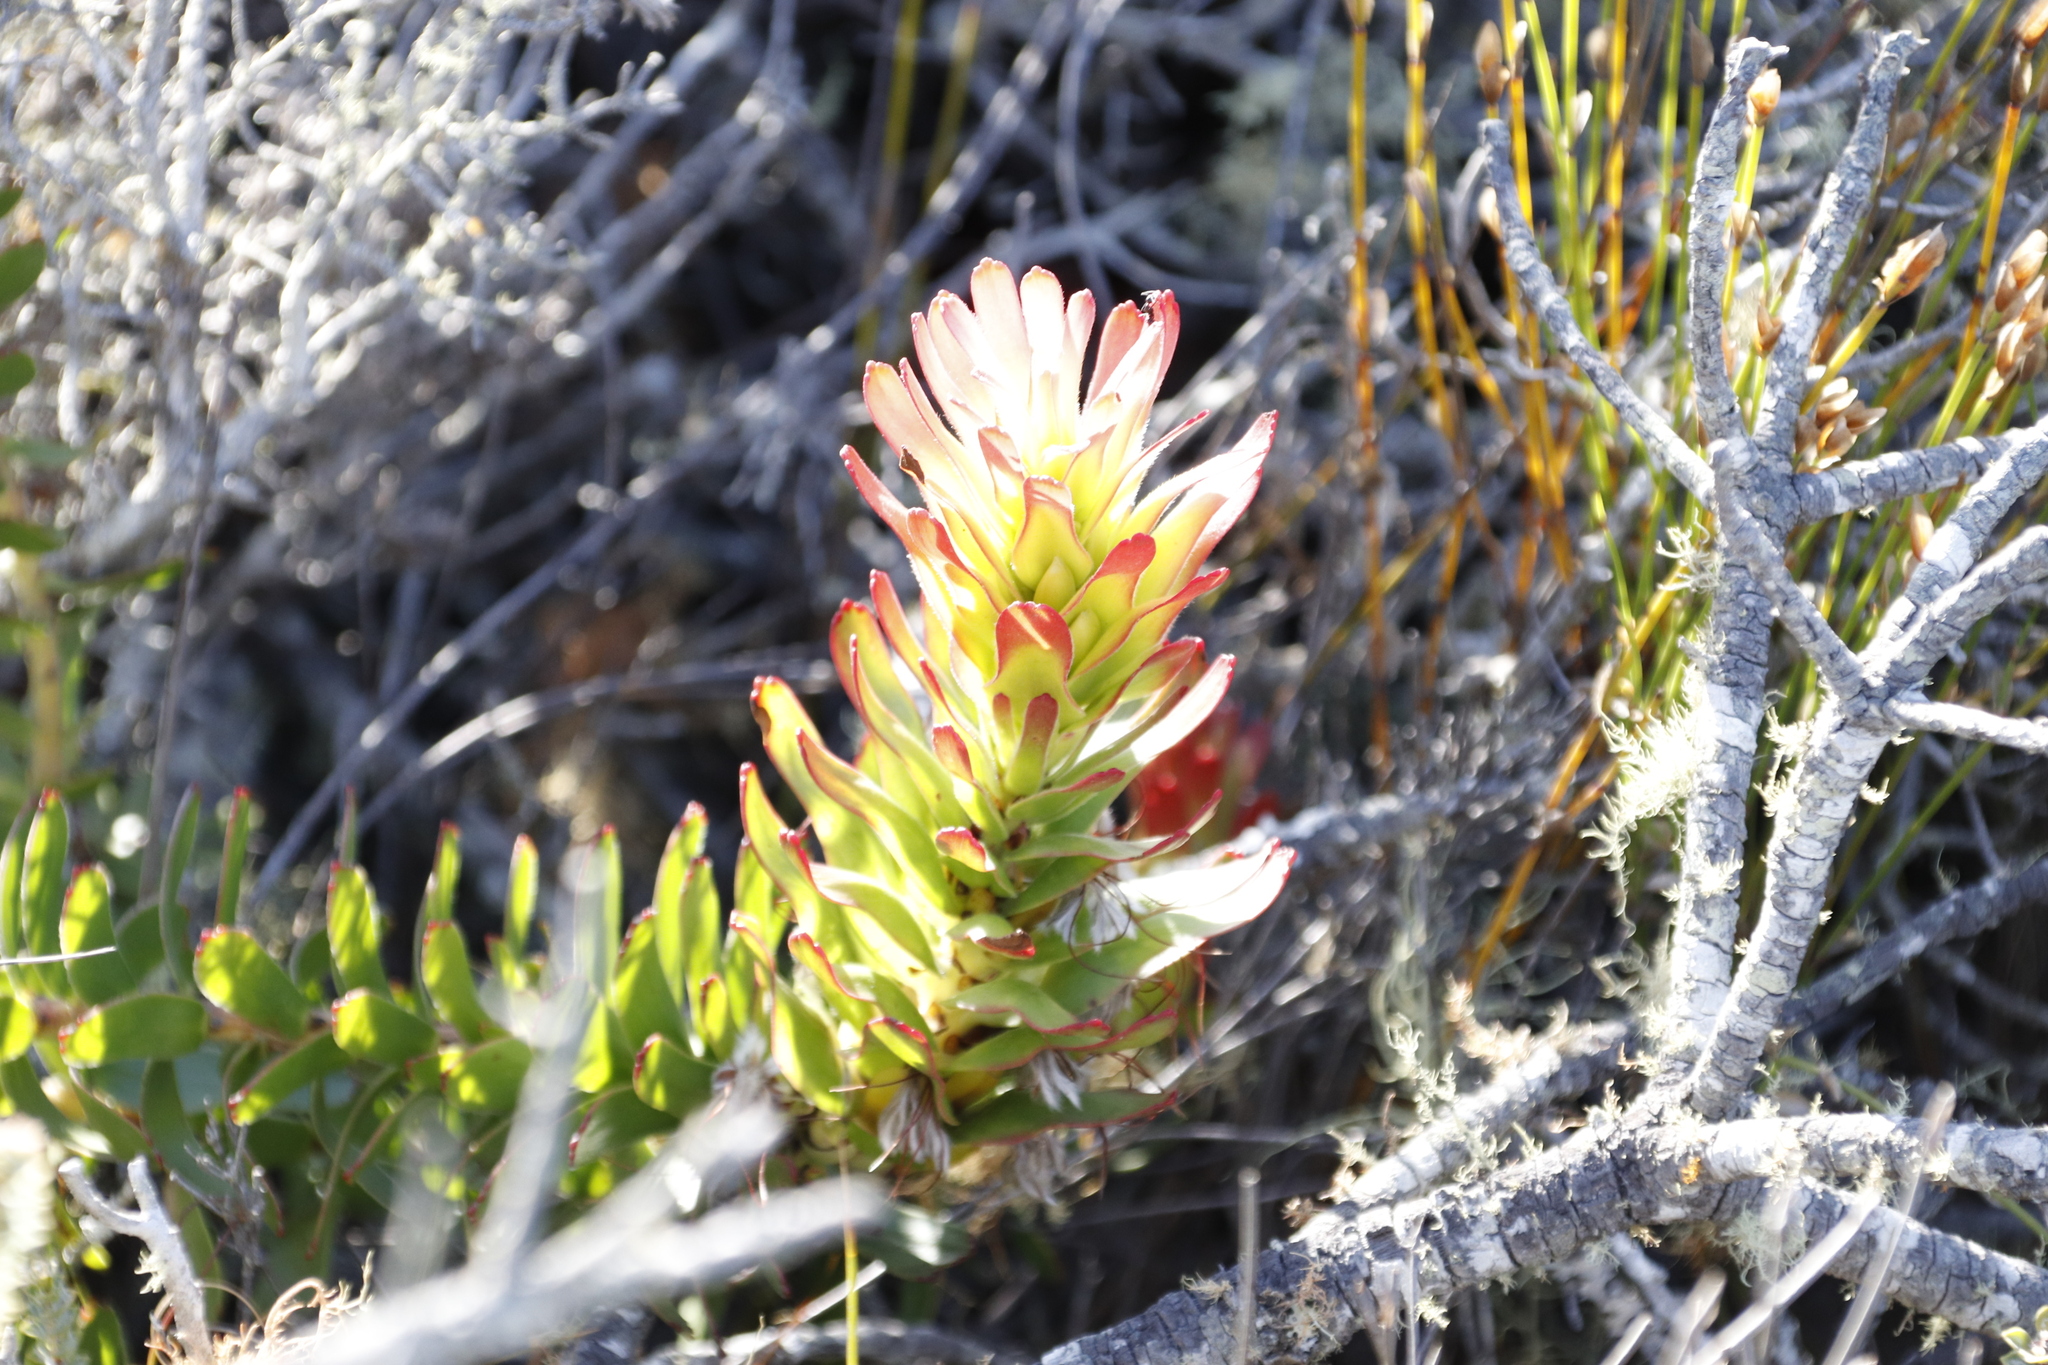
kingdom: Plantae
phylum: Tracheophyta
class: Magnoliopsida
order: Proteales
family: Proteaceae
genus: Mimetes
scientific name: Mimetes cucullatus
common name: Common pagoda
